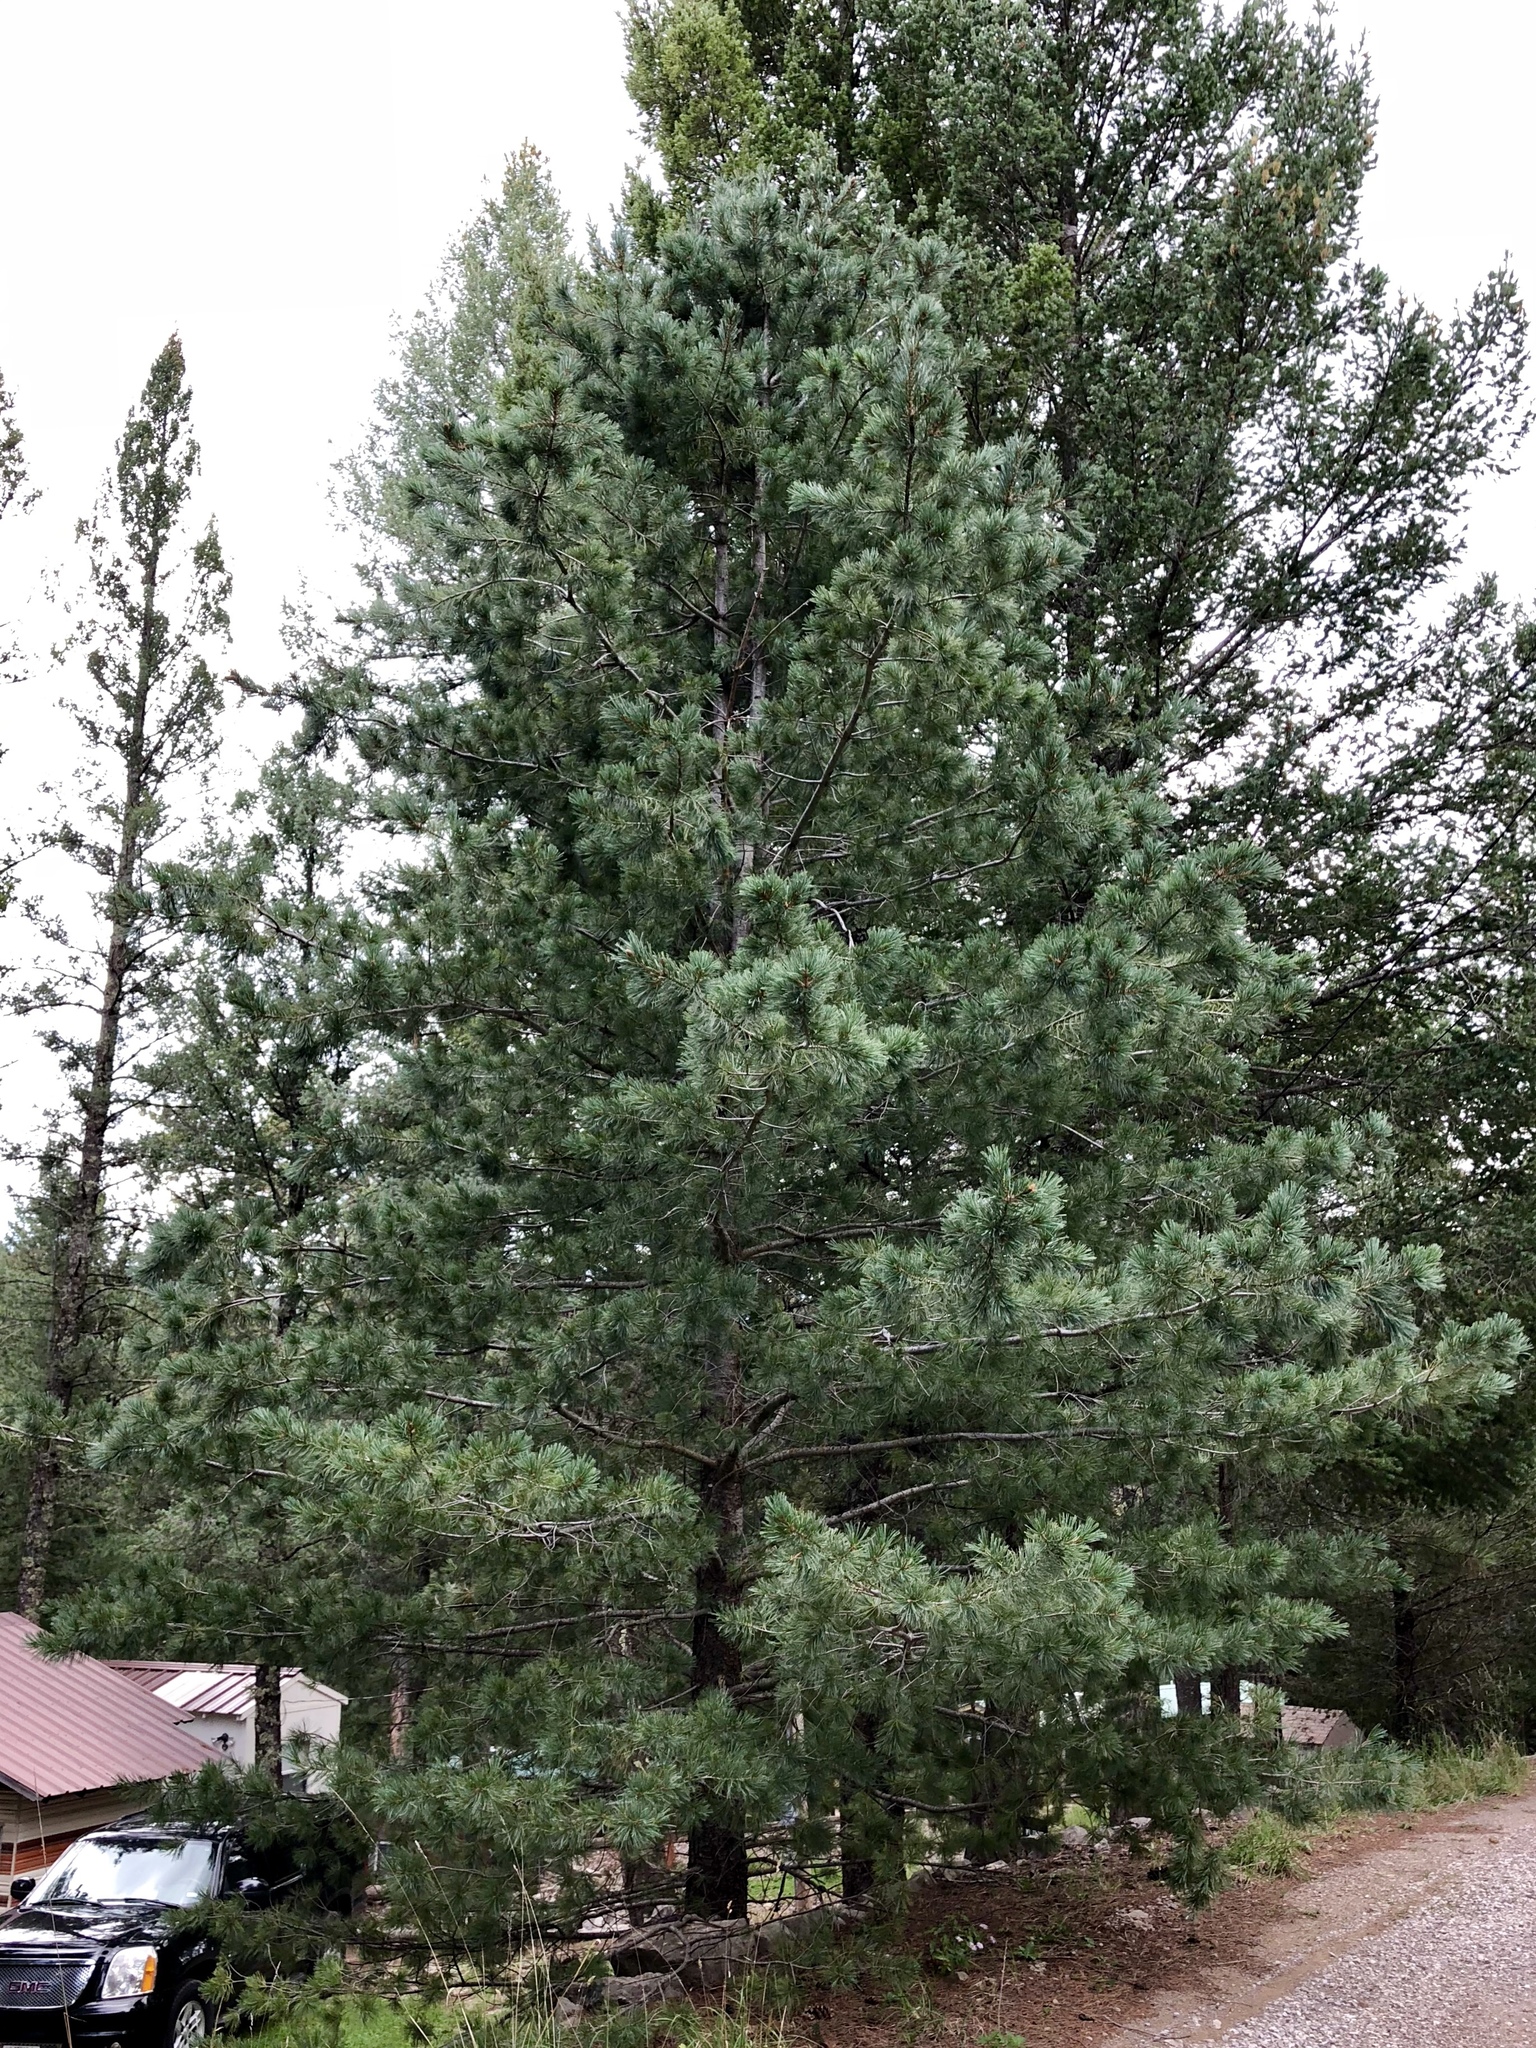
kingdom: Plantae
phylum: Tracheophyta
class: Pinopsida
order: Pinales
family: Pinaceae
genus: Pinus
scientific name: Pinus ponderosa
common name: Western yellow-pine
